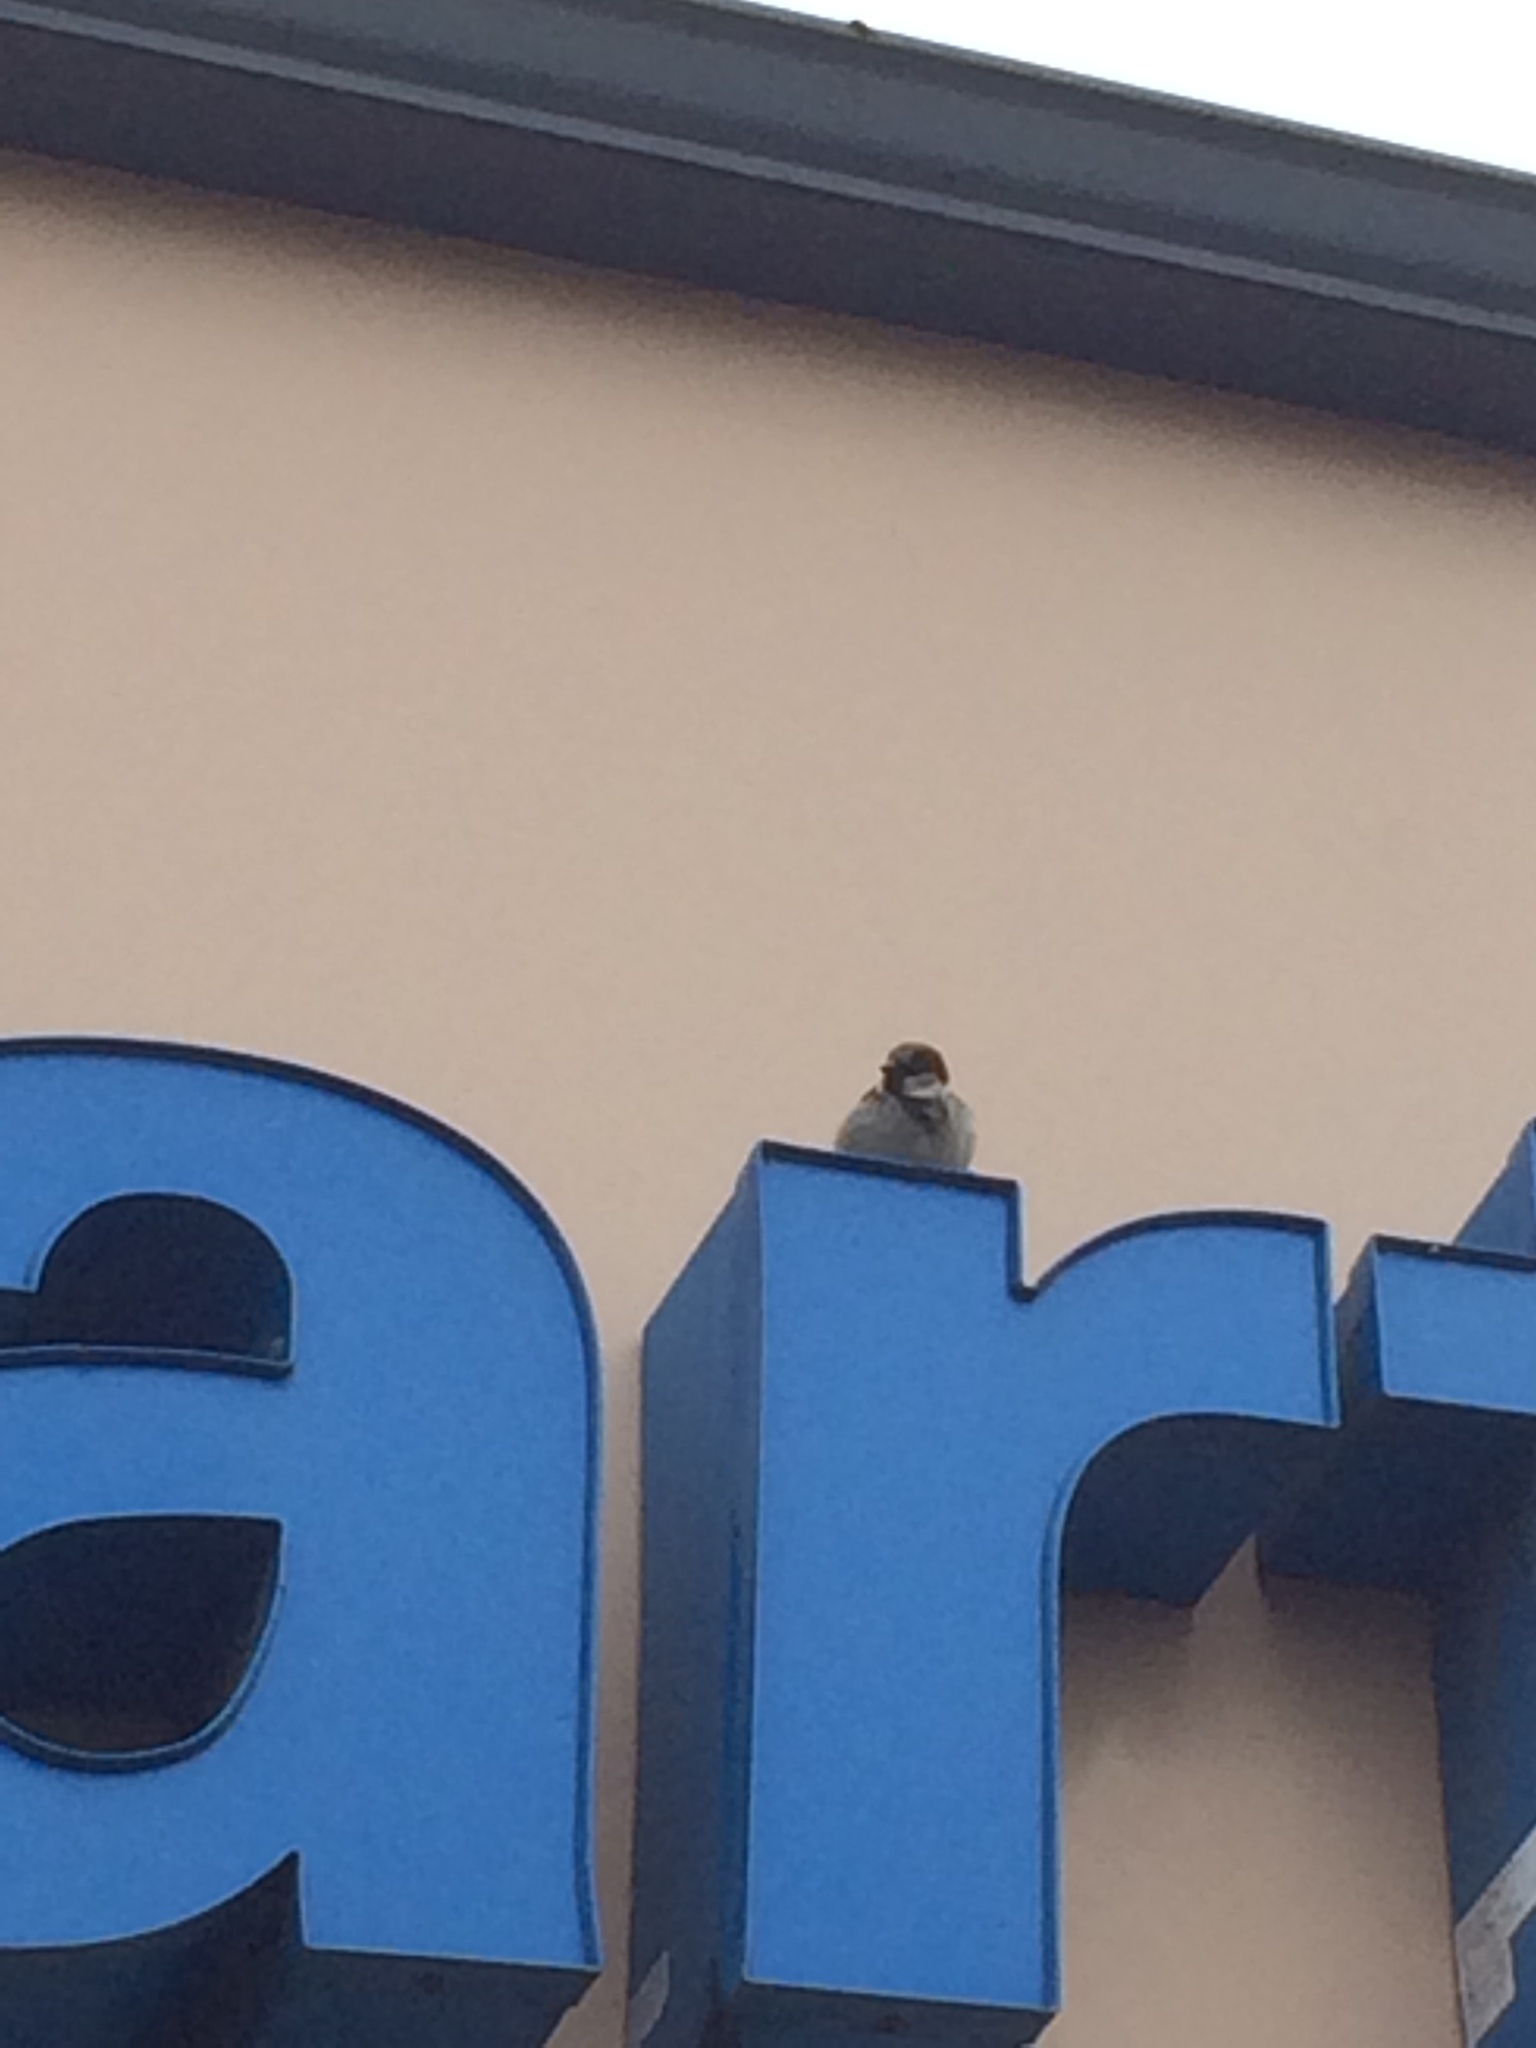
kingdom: Animalia
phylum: Chordata
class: Aves
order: Passeriformes
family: Passeridae
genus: Passer
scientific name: Passer domesticus
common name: House sparrow
